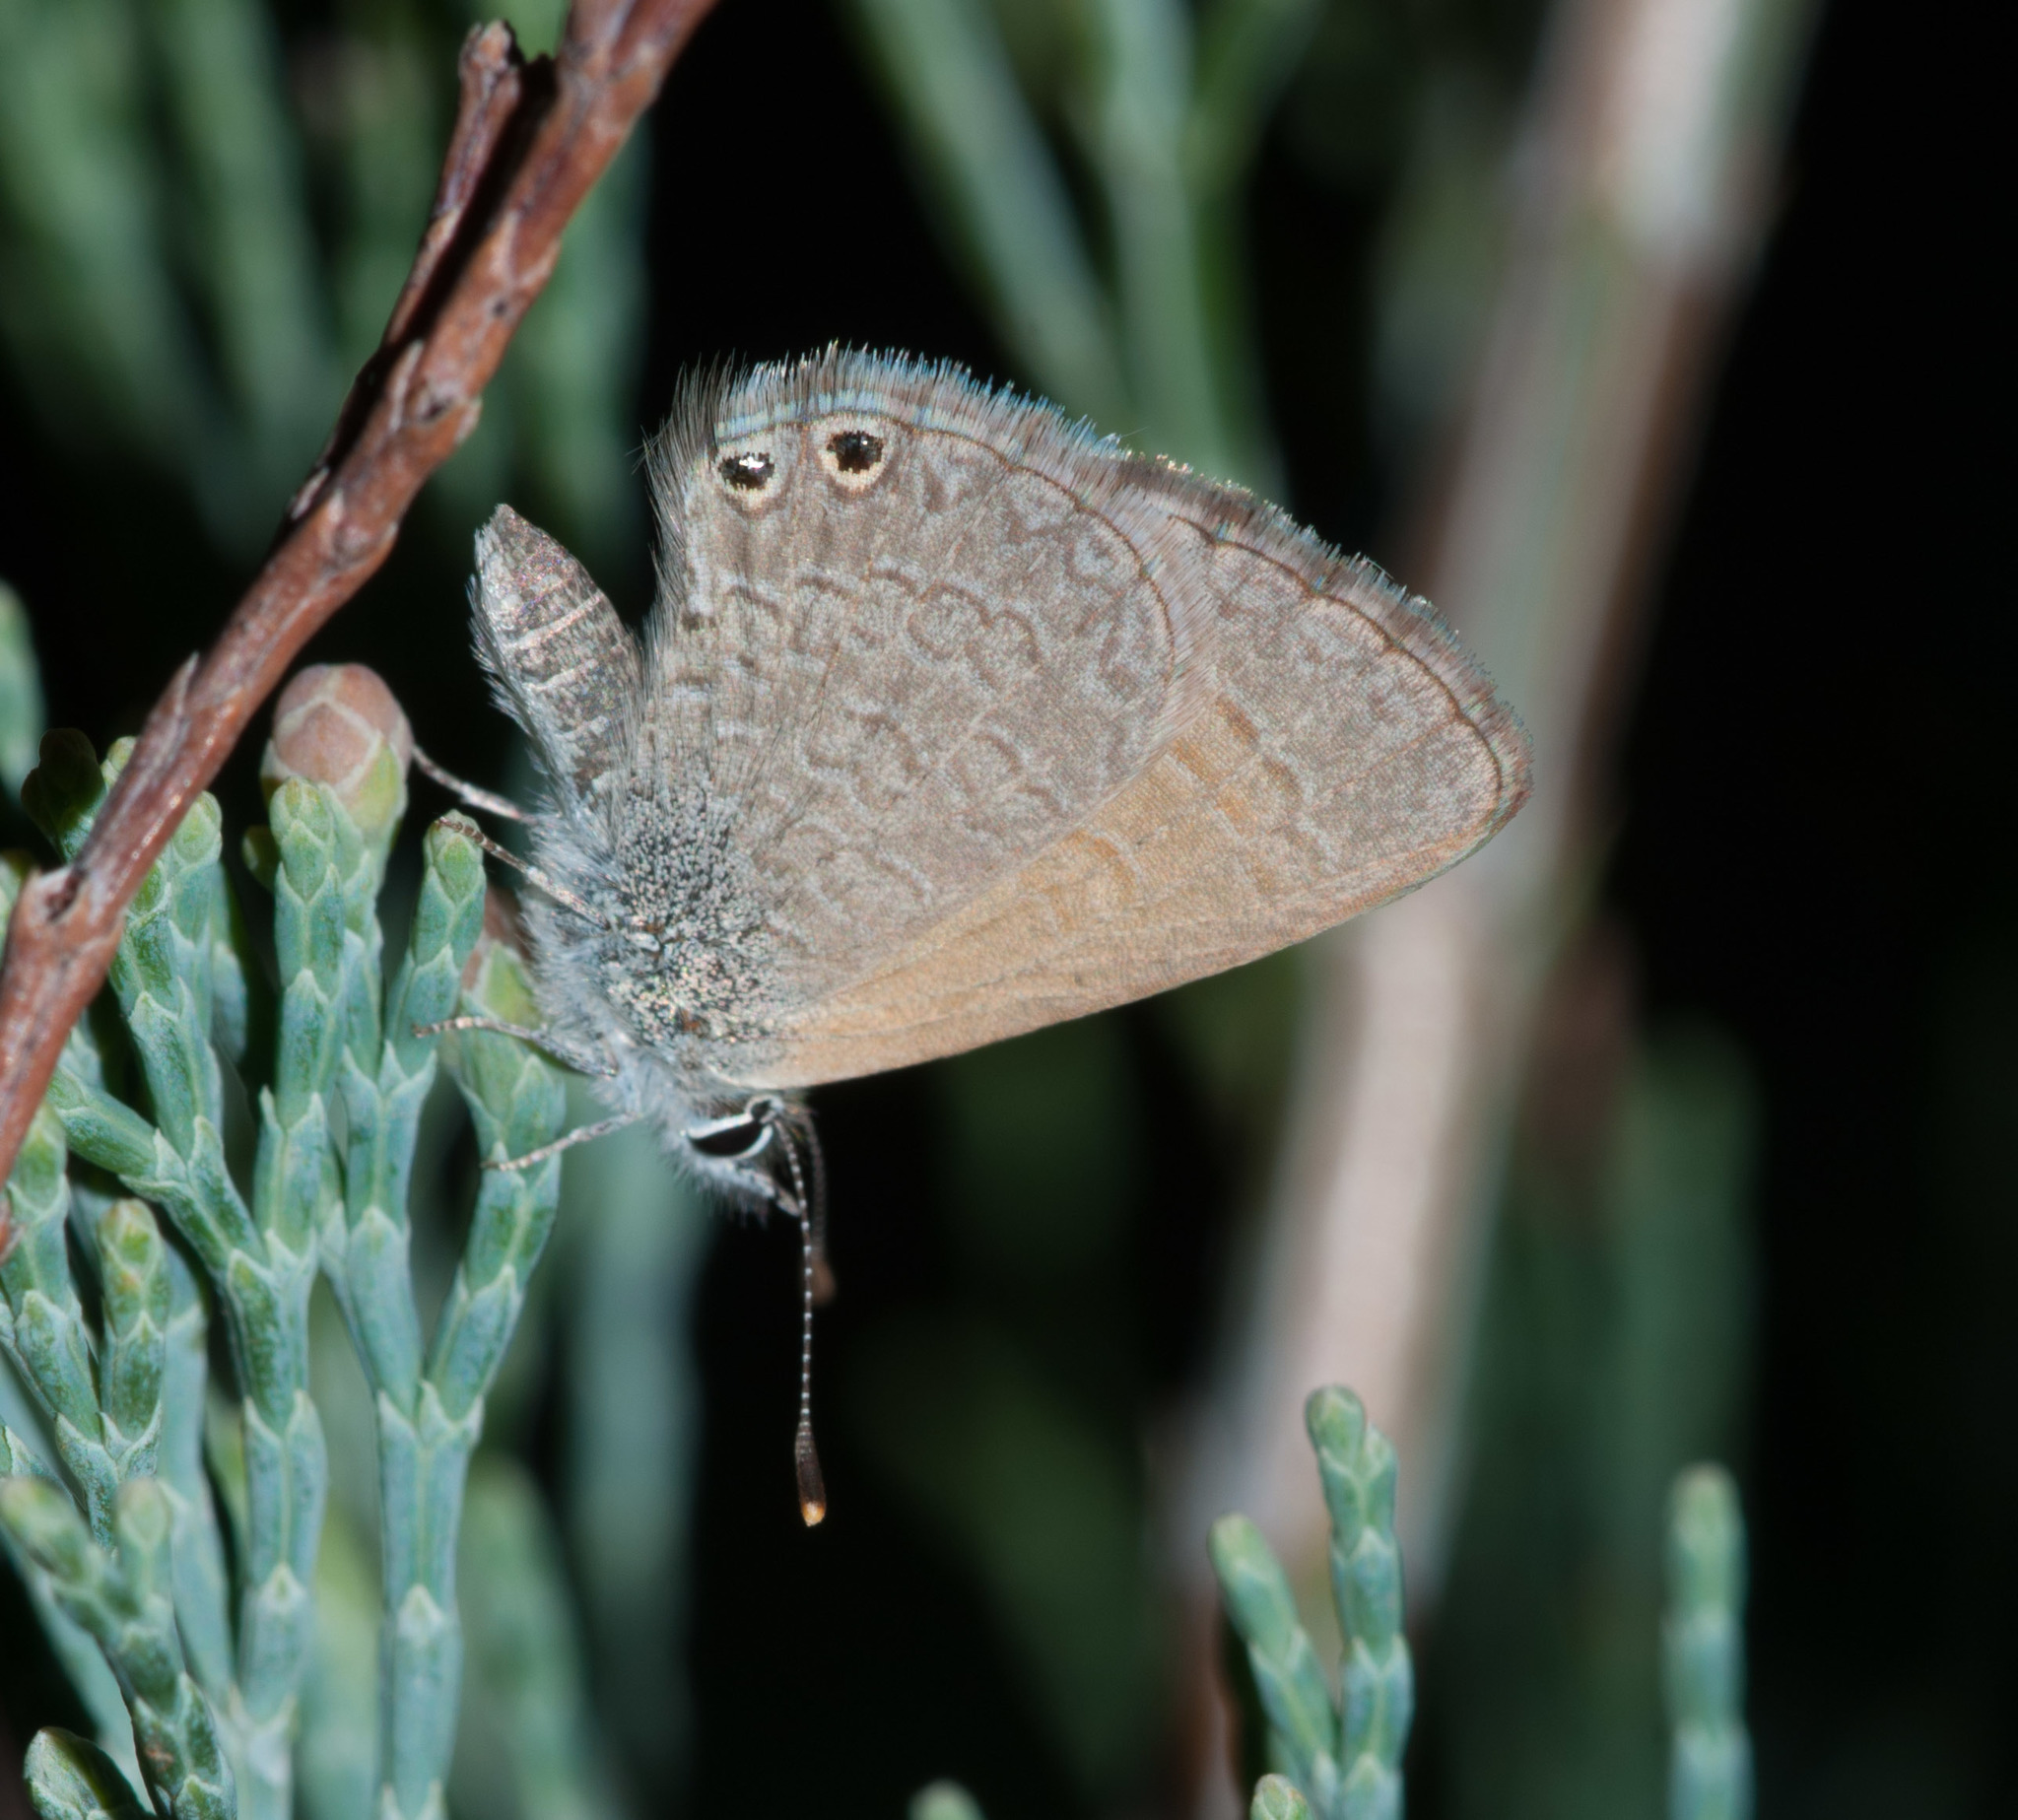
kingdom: Animalia
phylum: Arthropoda
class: Insecta
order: Lepidoptera
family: Lycaenidae
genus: Nacaduba
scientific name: Nacaduba biocellata
